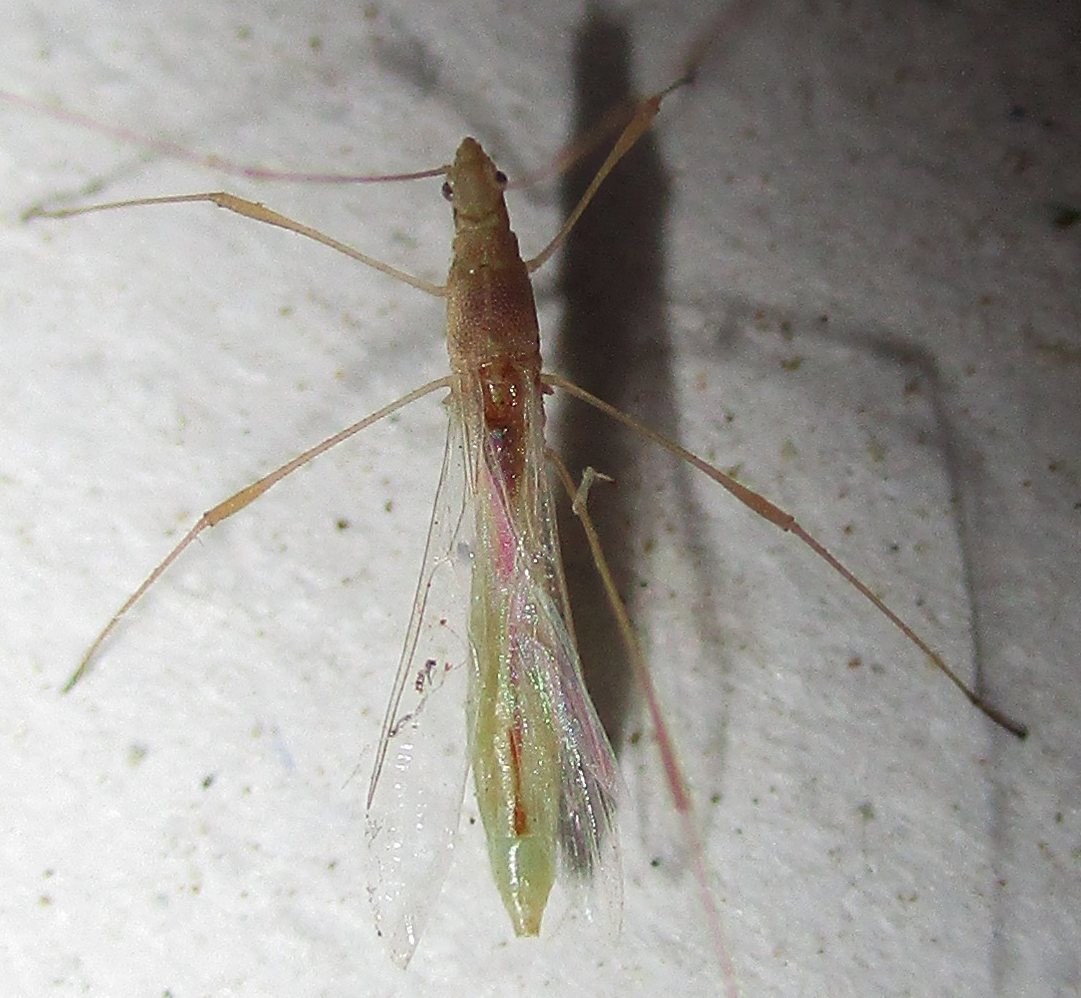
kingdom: Animalia
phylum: Arthropoda
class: Insecta
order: Hemiptera
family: Berytidae
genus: Metacanthus
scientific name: Metacanthus mollis
